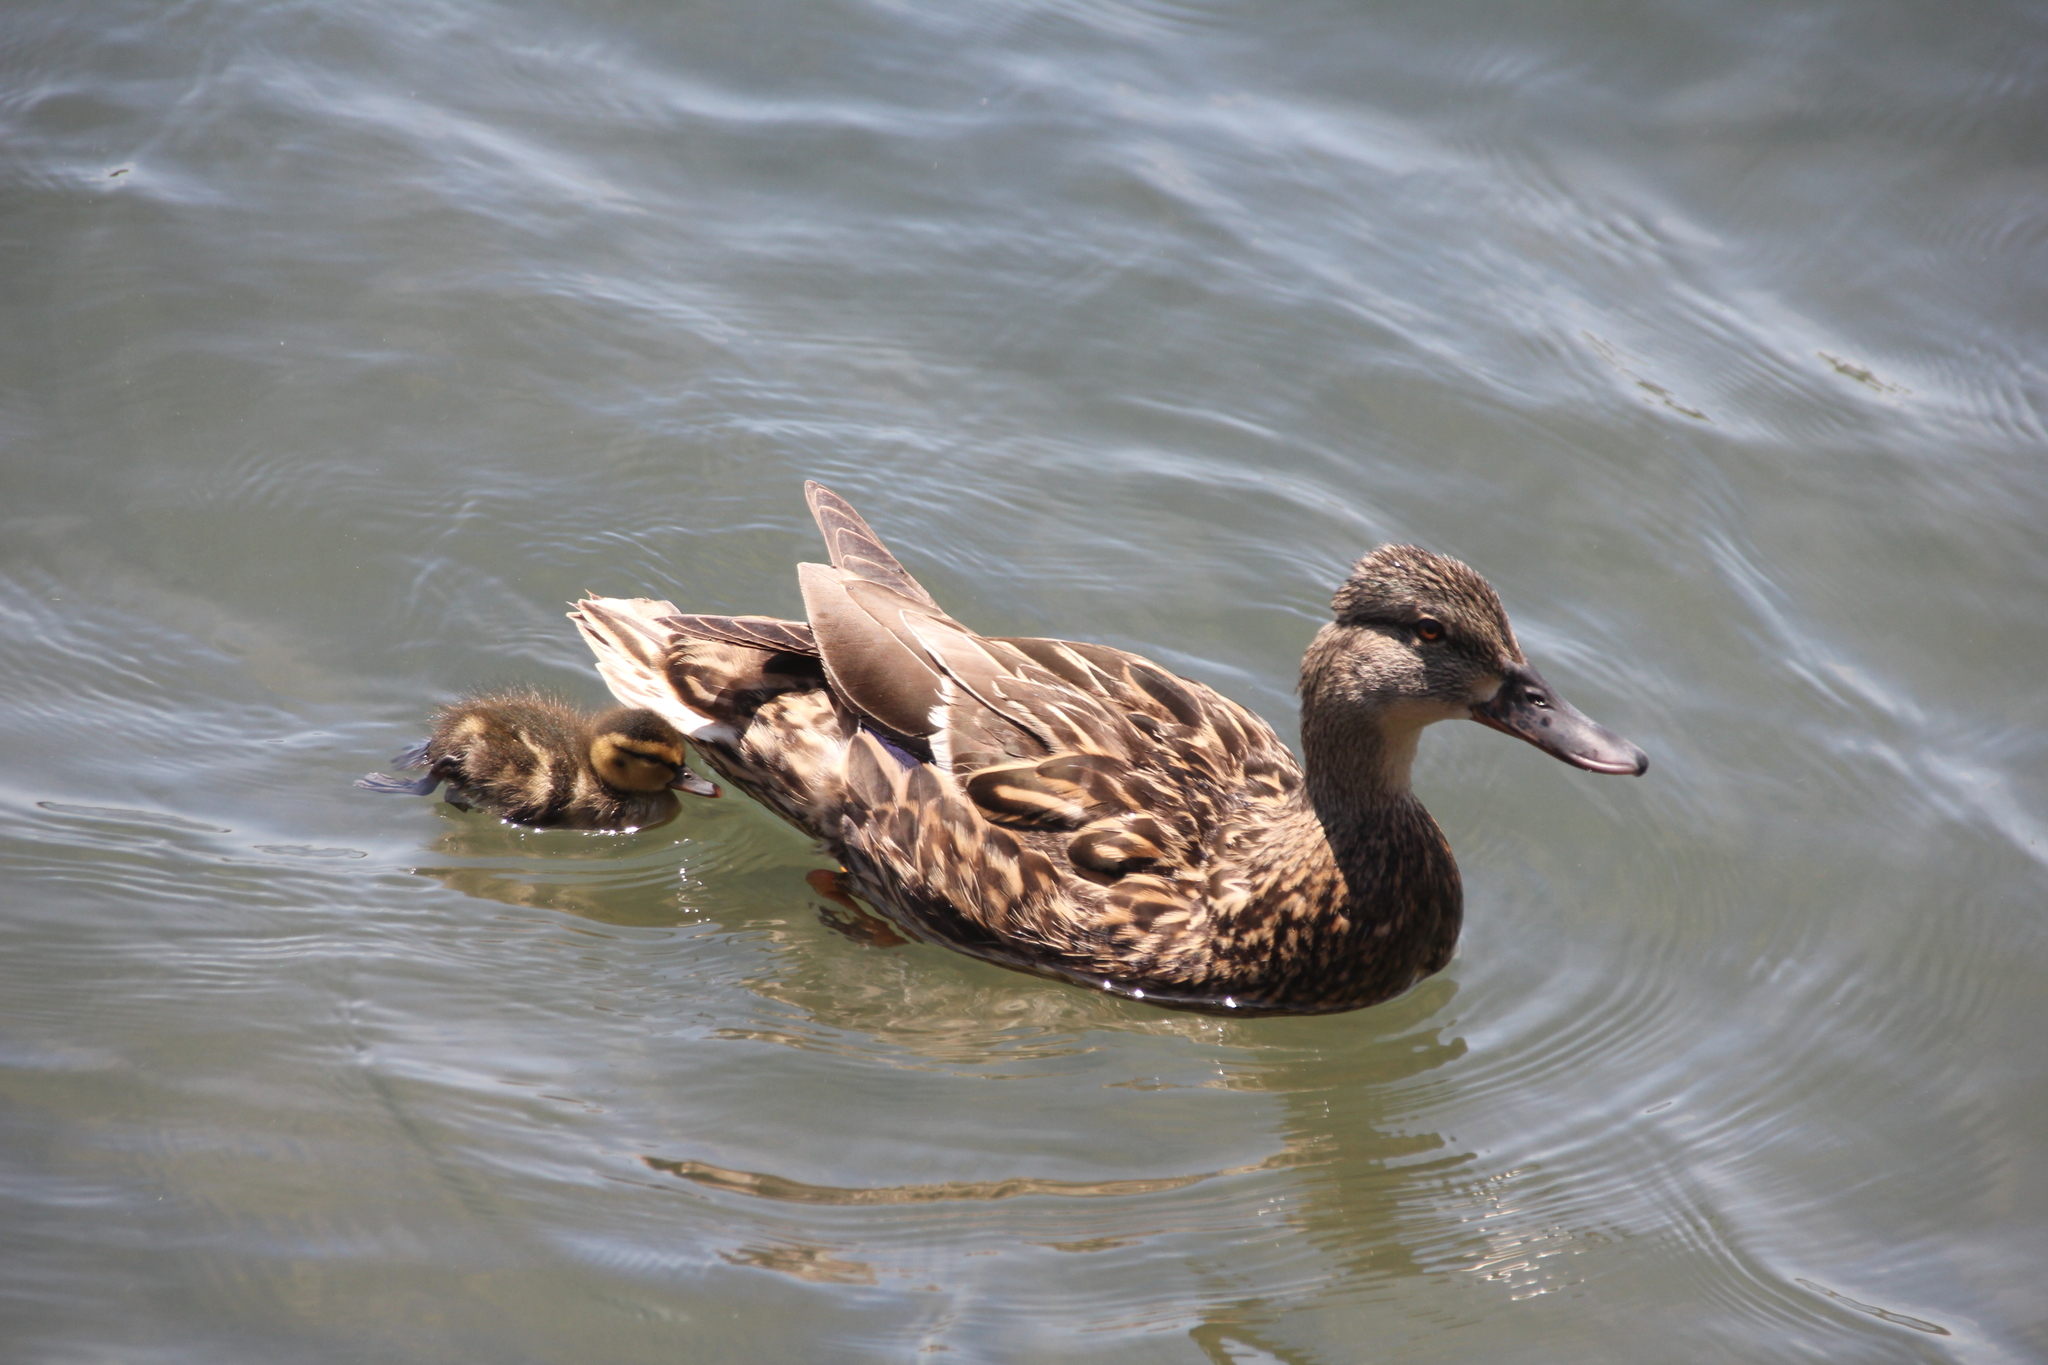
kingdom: Animalia
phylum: Chordata
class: Aves
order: Anseriformes
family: Anatidae
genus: Anas
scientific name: Anas platyrhynchos
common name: Mallard
